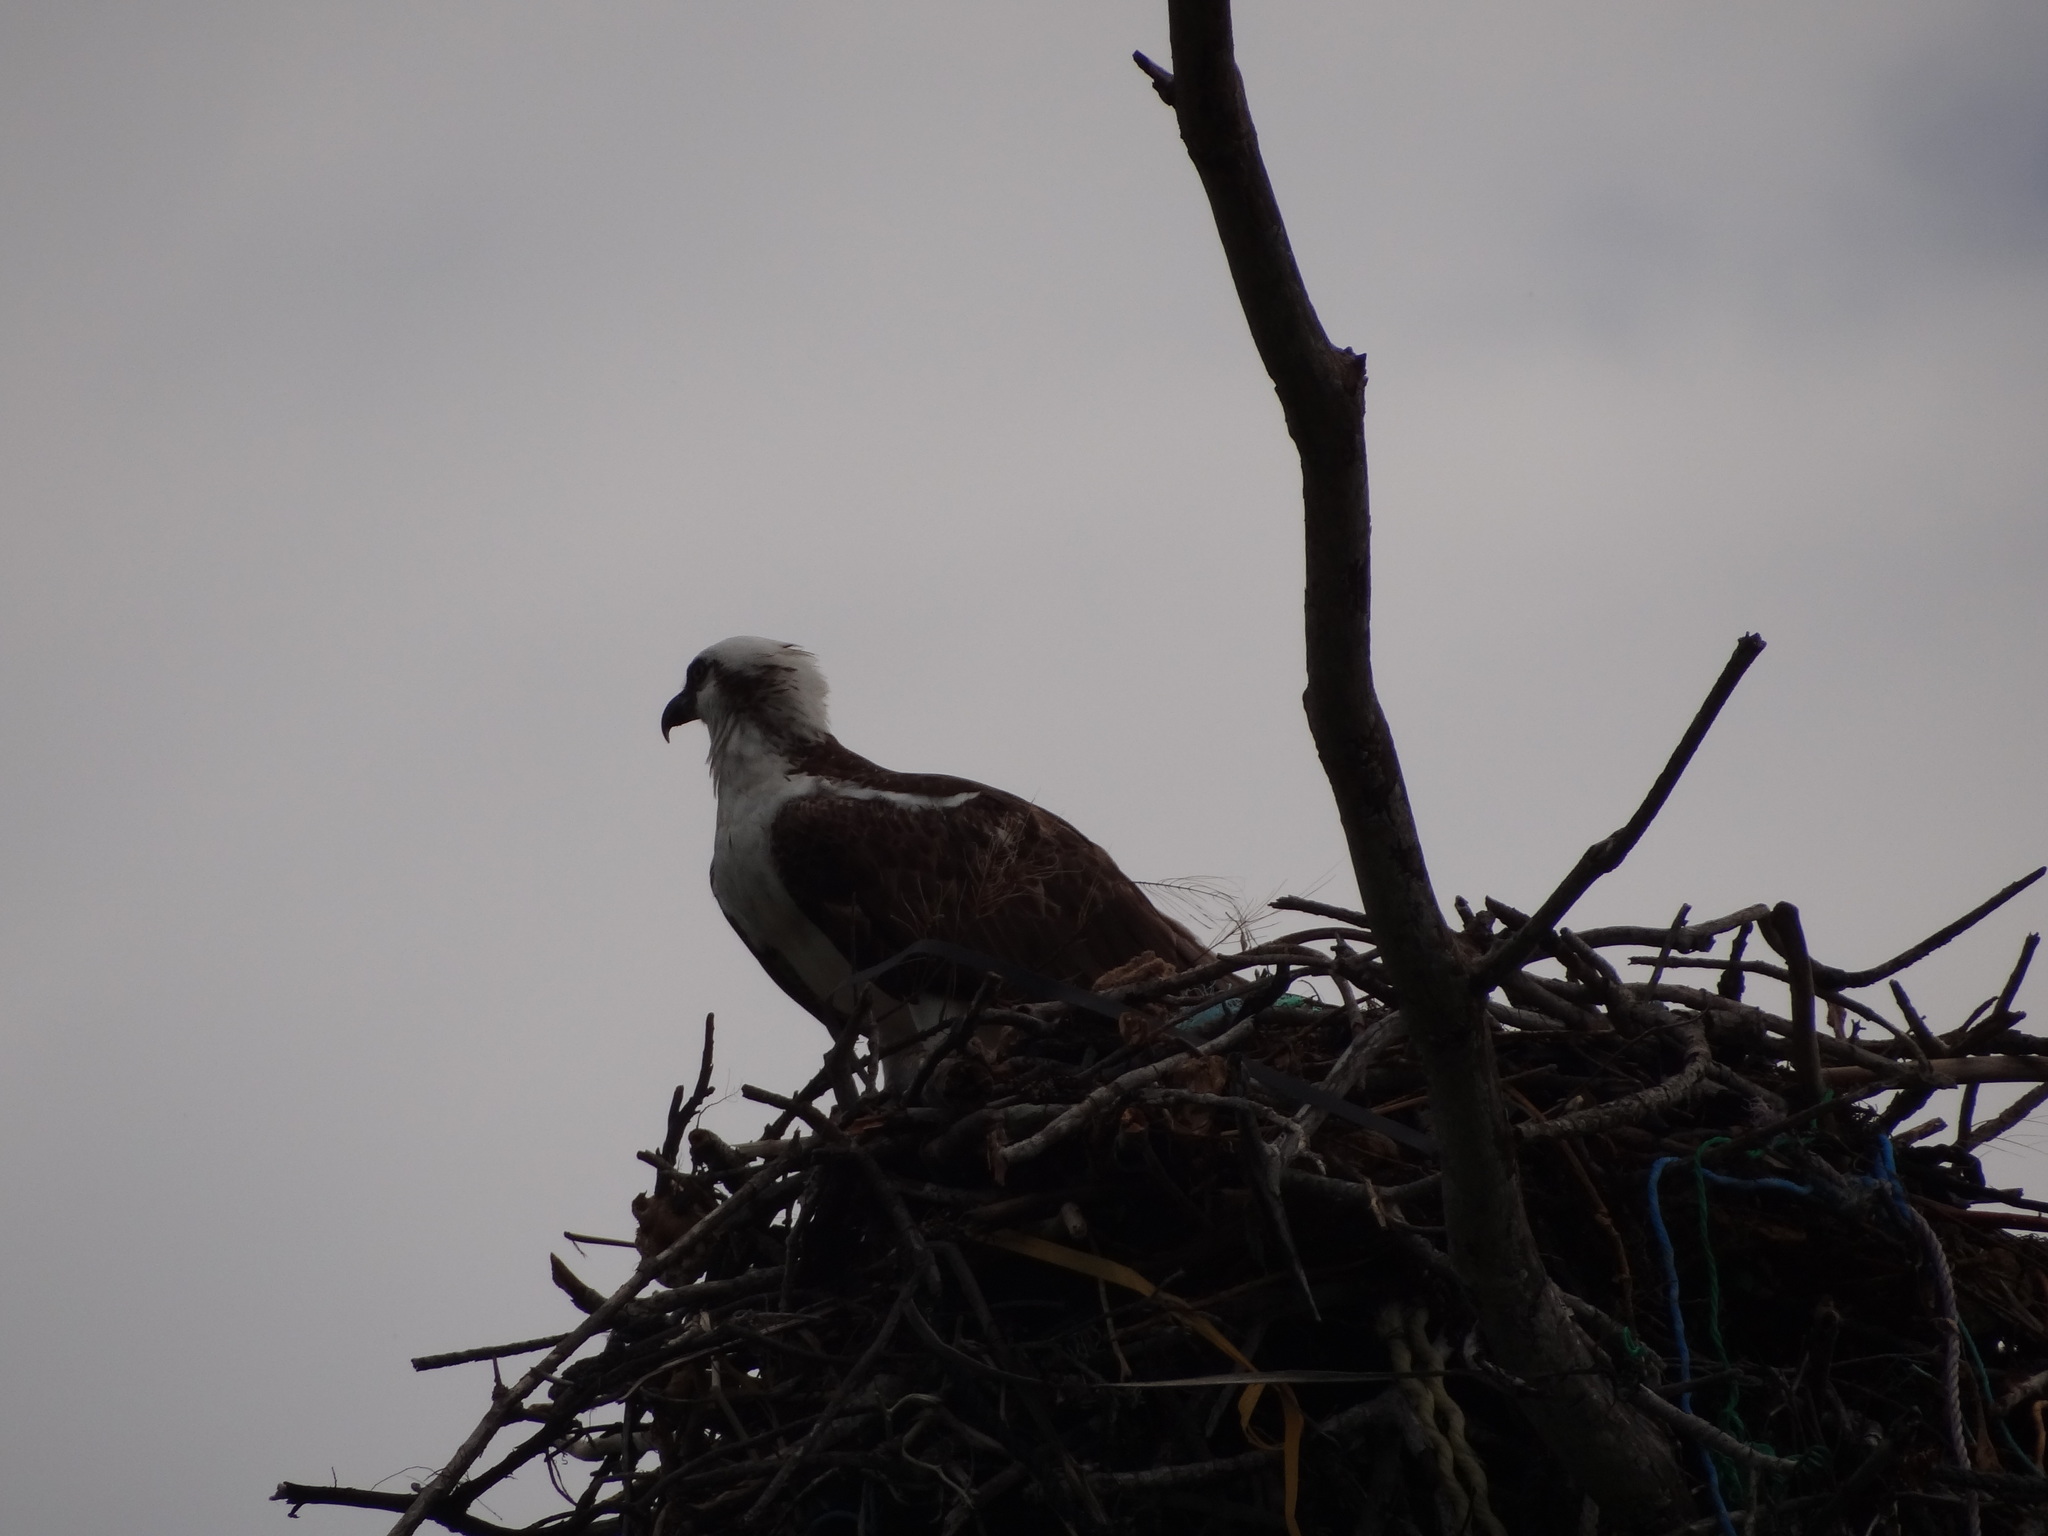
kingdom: Animalia
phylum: Chordata
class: Aves
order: Accipitriformes
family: Pandionidae
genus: Pandion
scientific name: Pandion haliaetus
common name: Osprey
